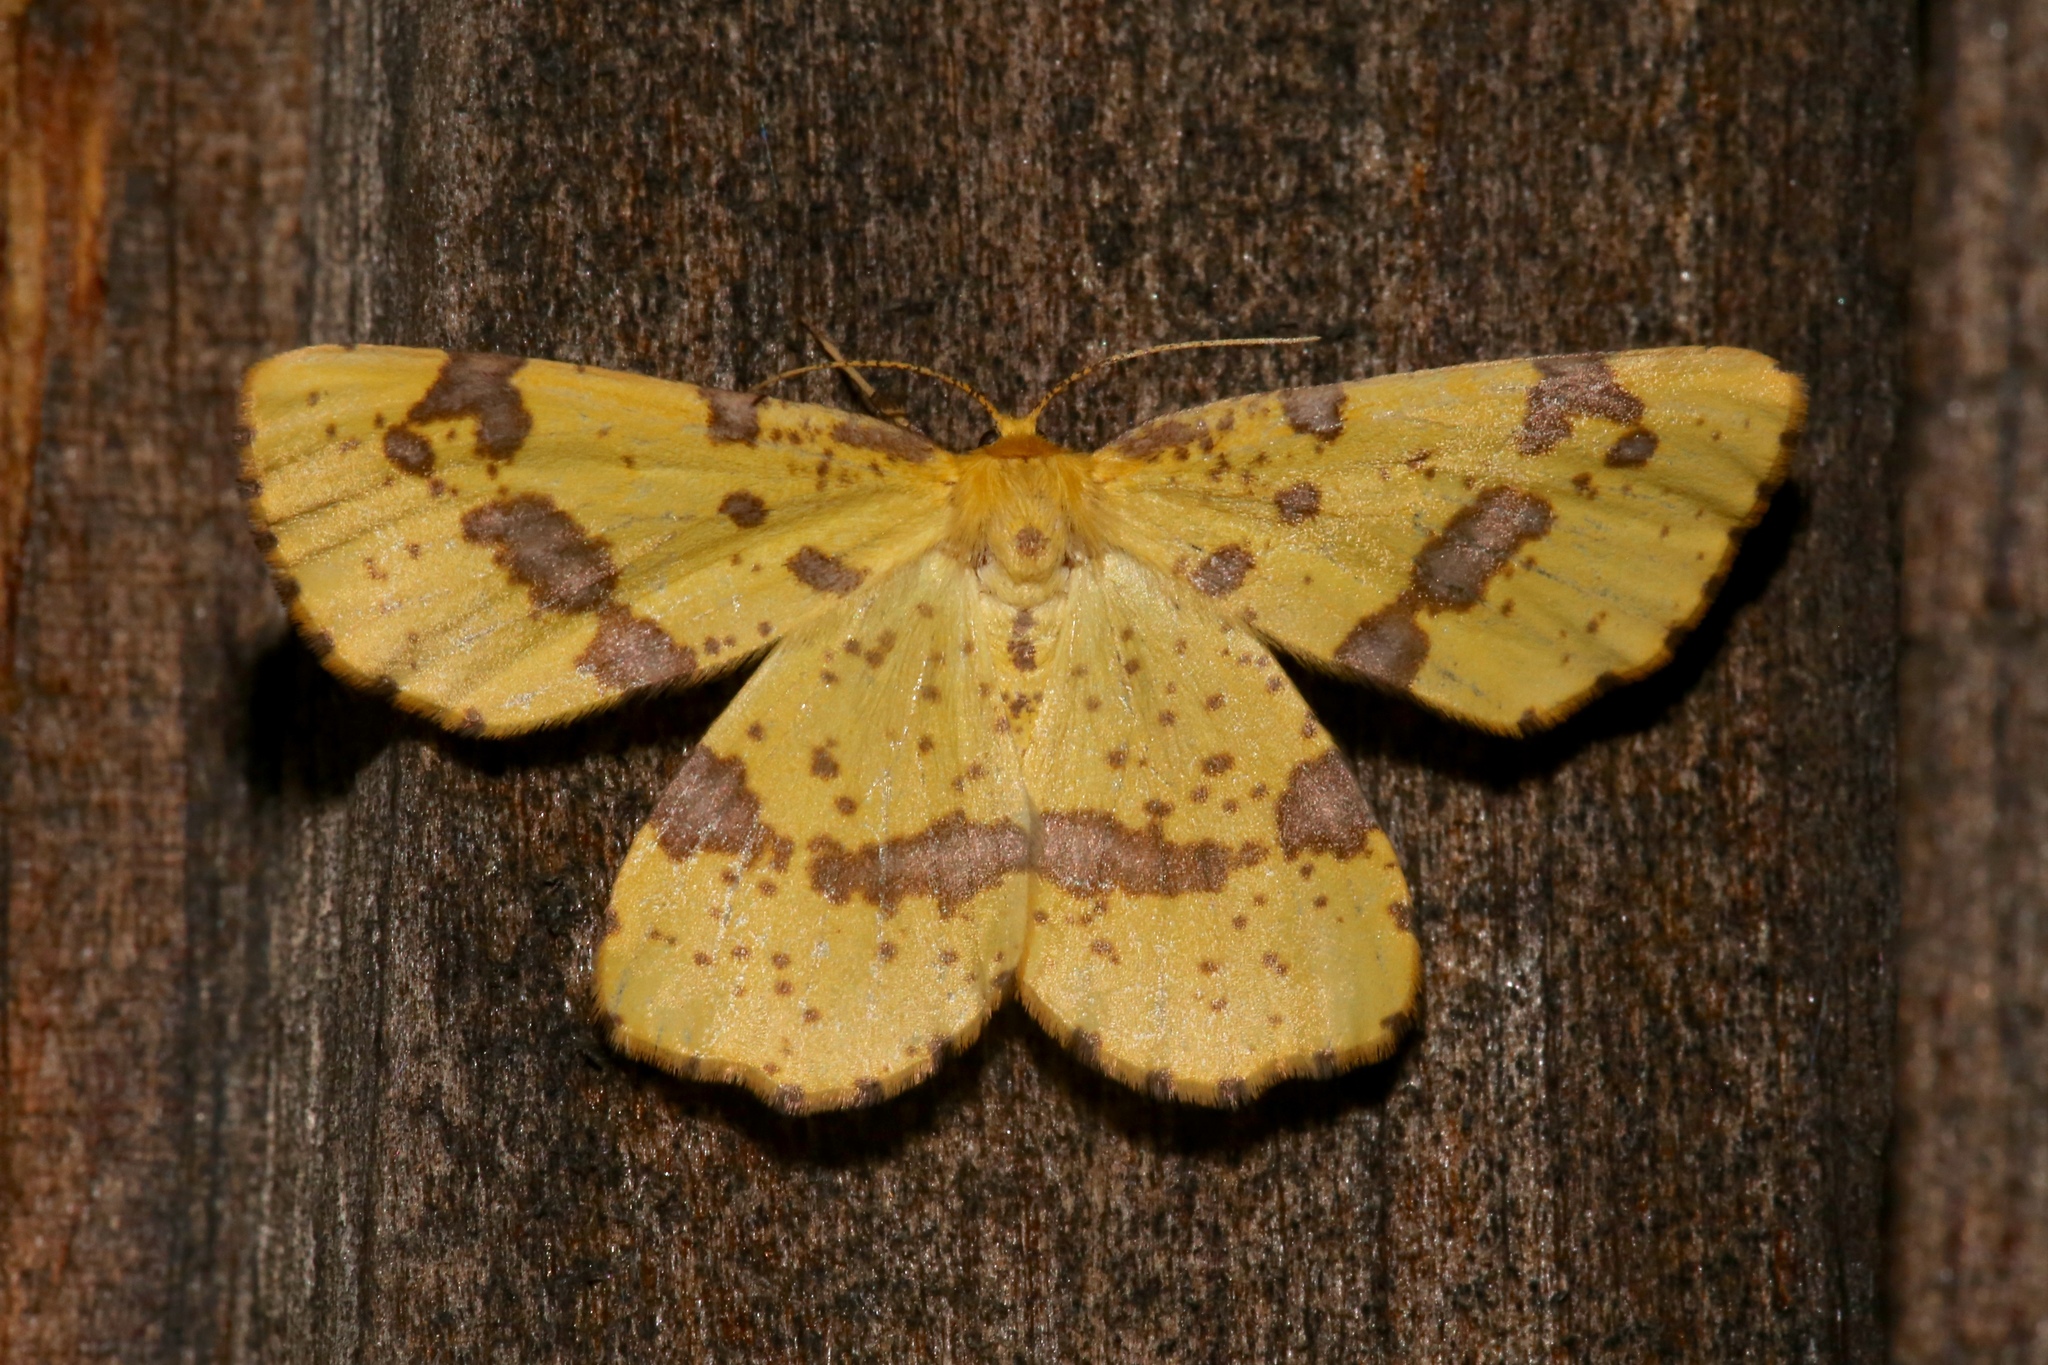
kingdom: Animalia
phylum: Arthropoda
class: Insecta
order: Lepidoptera
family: Geometridae
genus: Xanthotype
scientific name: Xanthotype
